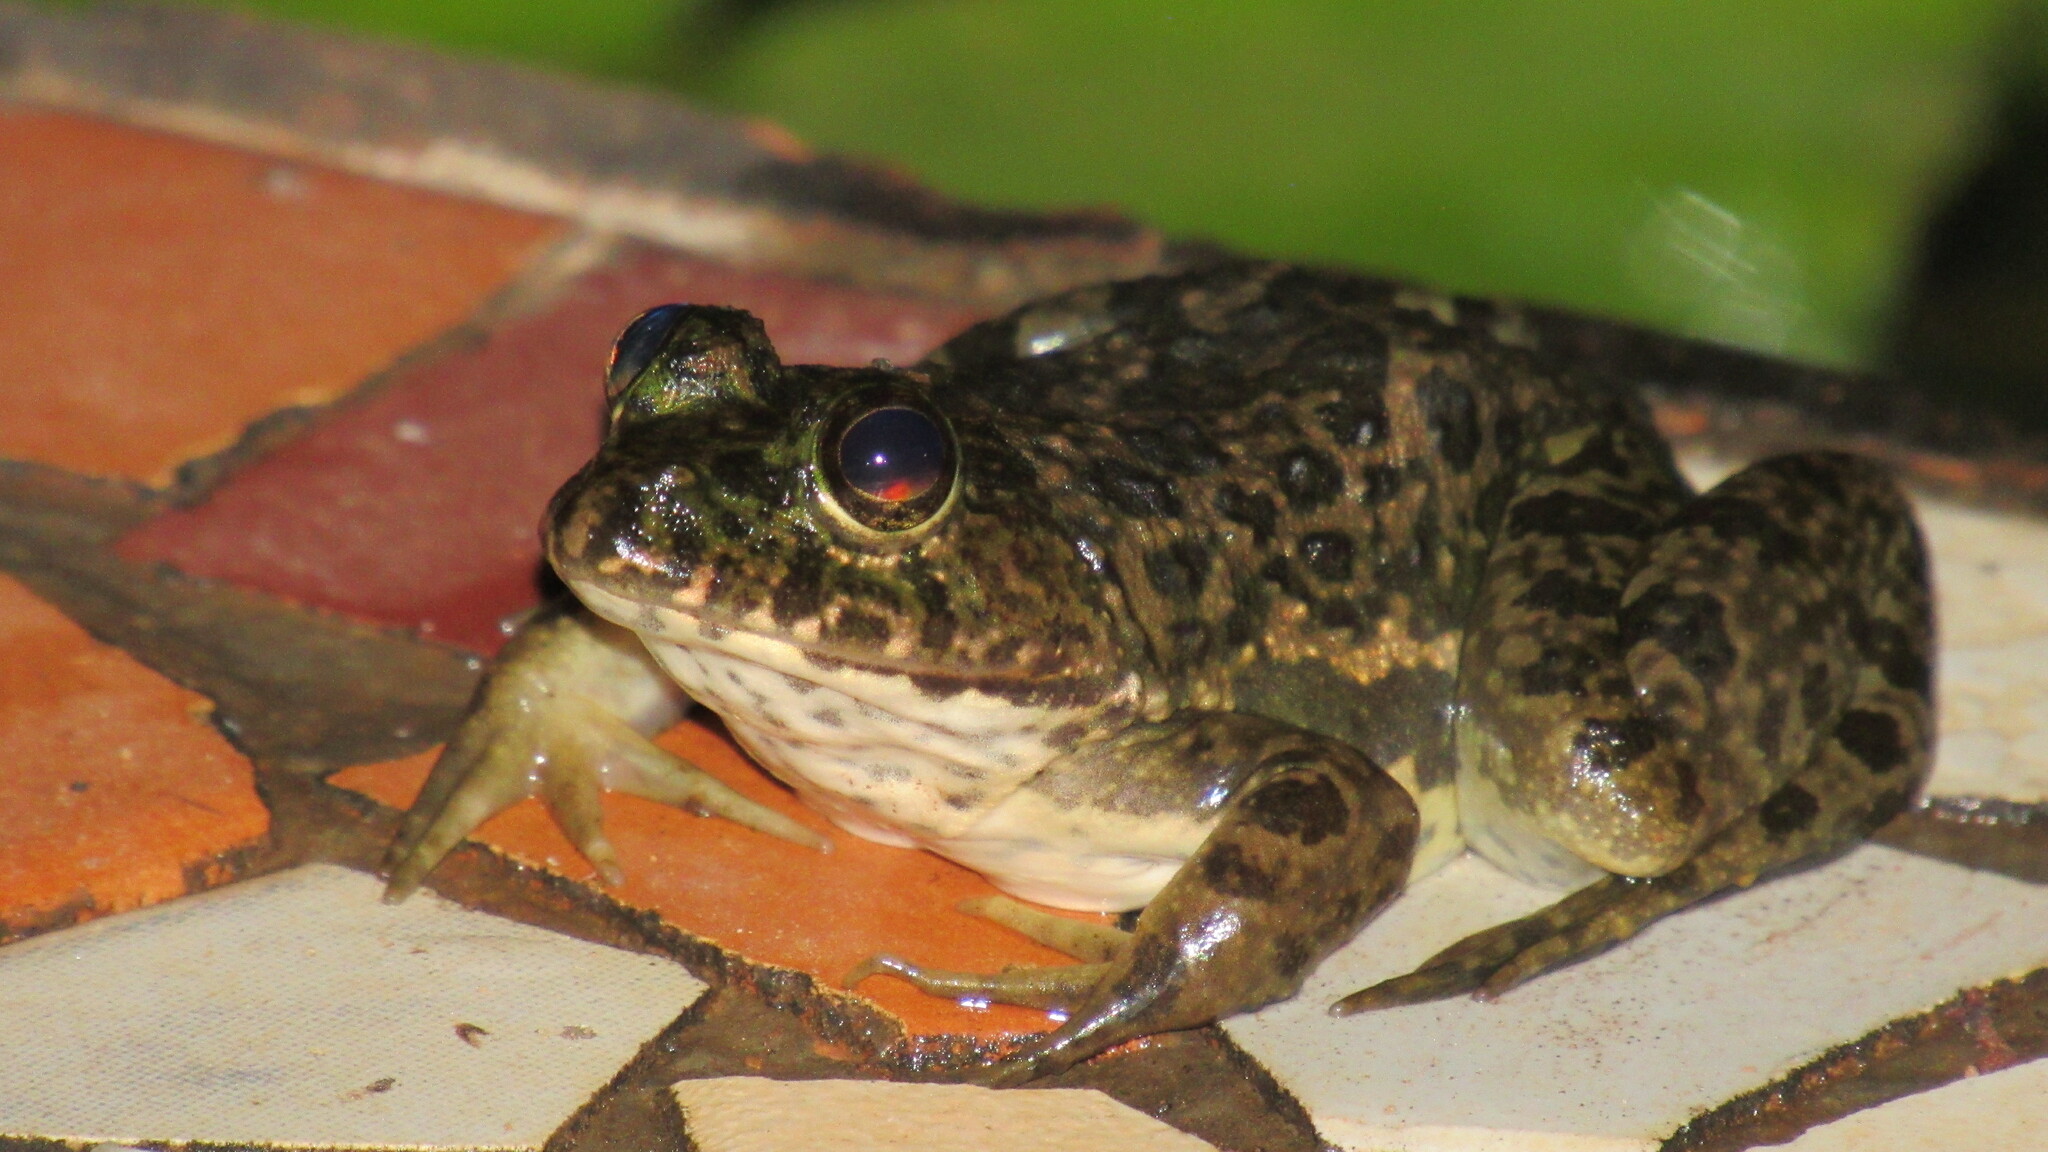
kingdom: Animalia
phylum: Chordata
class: Amphibia
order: Anura
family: Dicroglossidae
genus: Euphlyctis
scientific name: Euphlyctis cyanophlyctis
